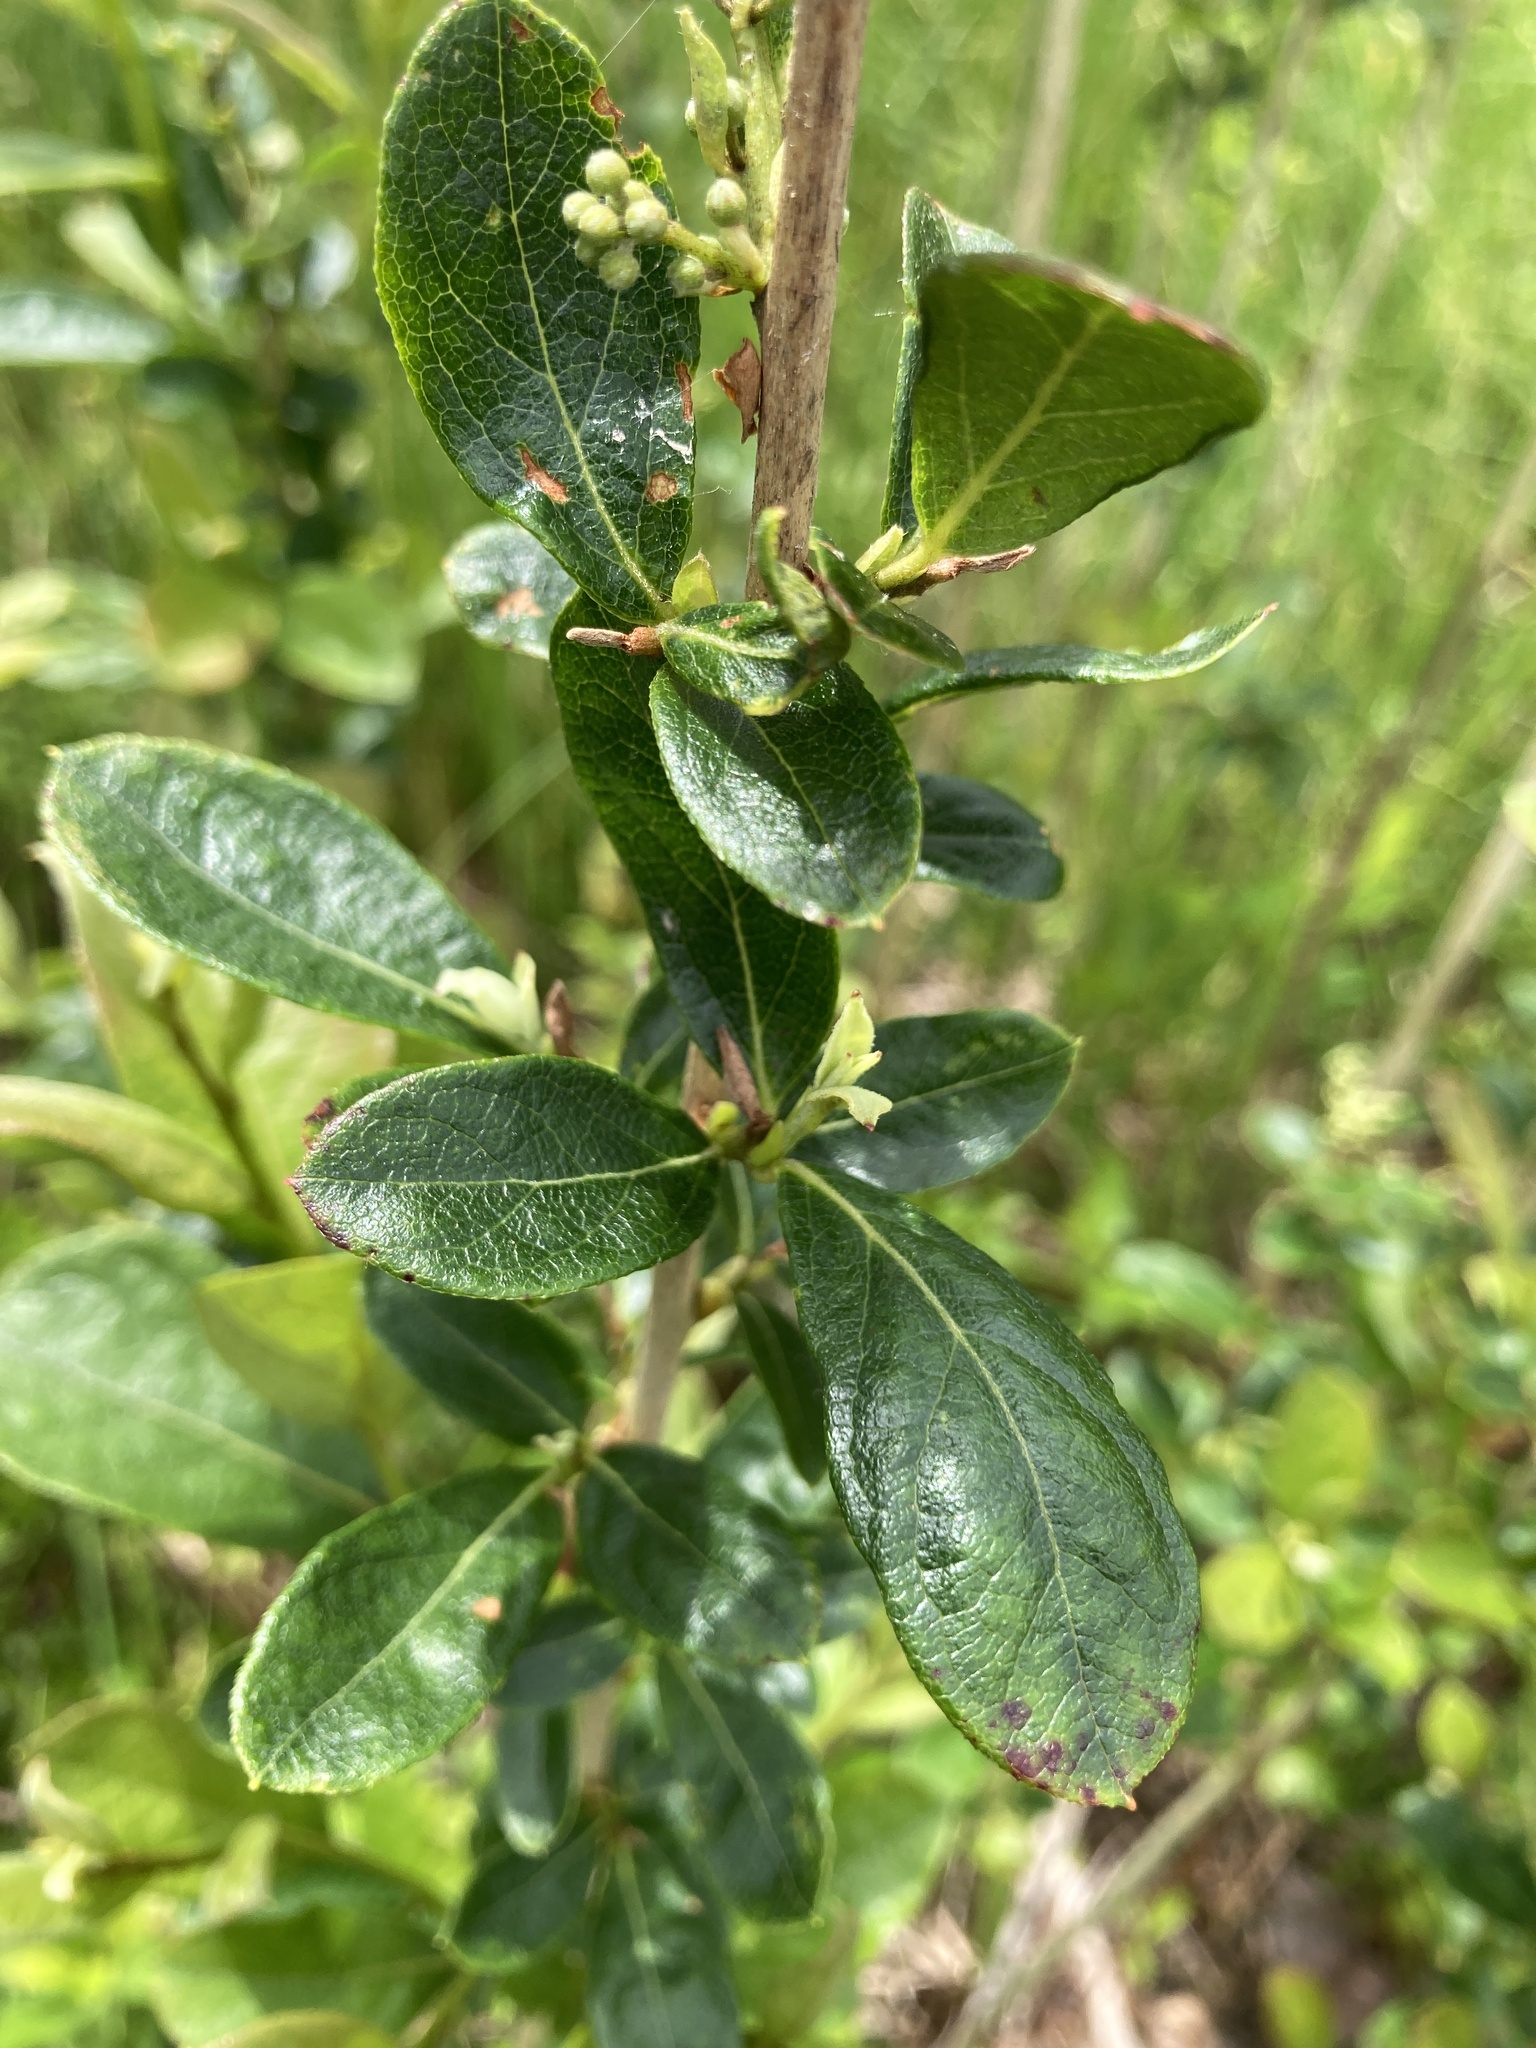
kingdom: Plantae
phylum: Tracheophyta
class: Magnoliopsida
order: Ericales
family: Ericaceae
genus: Lyonia
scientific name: Lyonia ligustrina
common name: Maleberry
